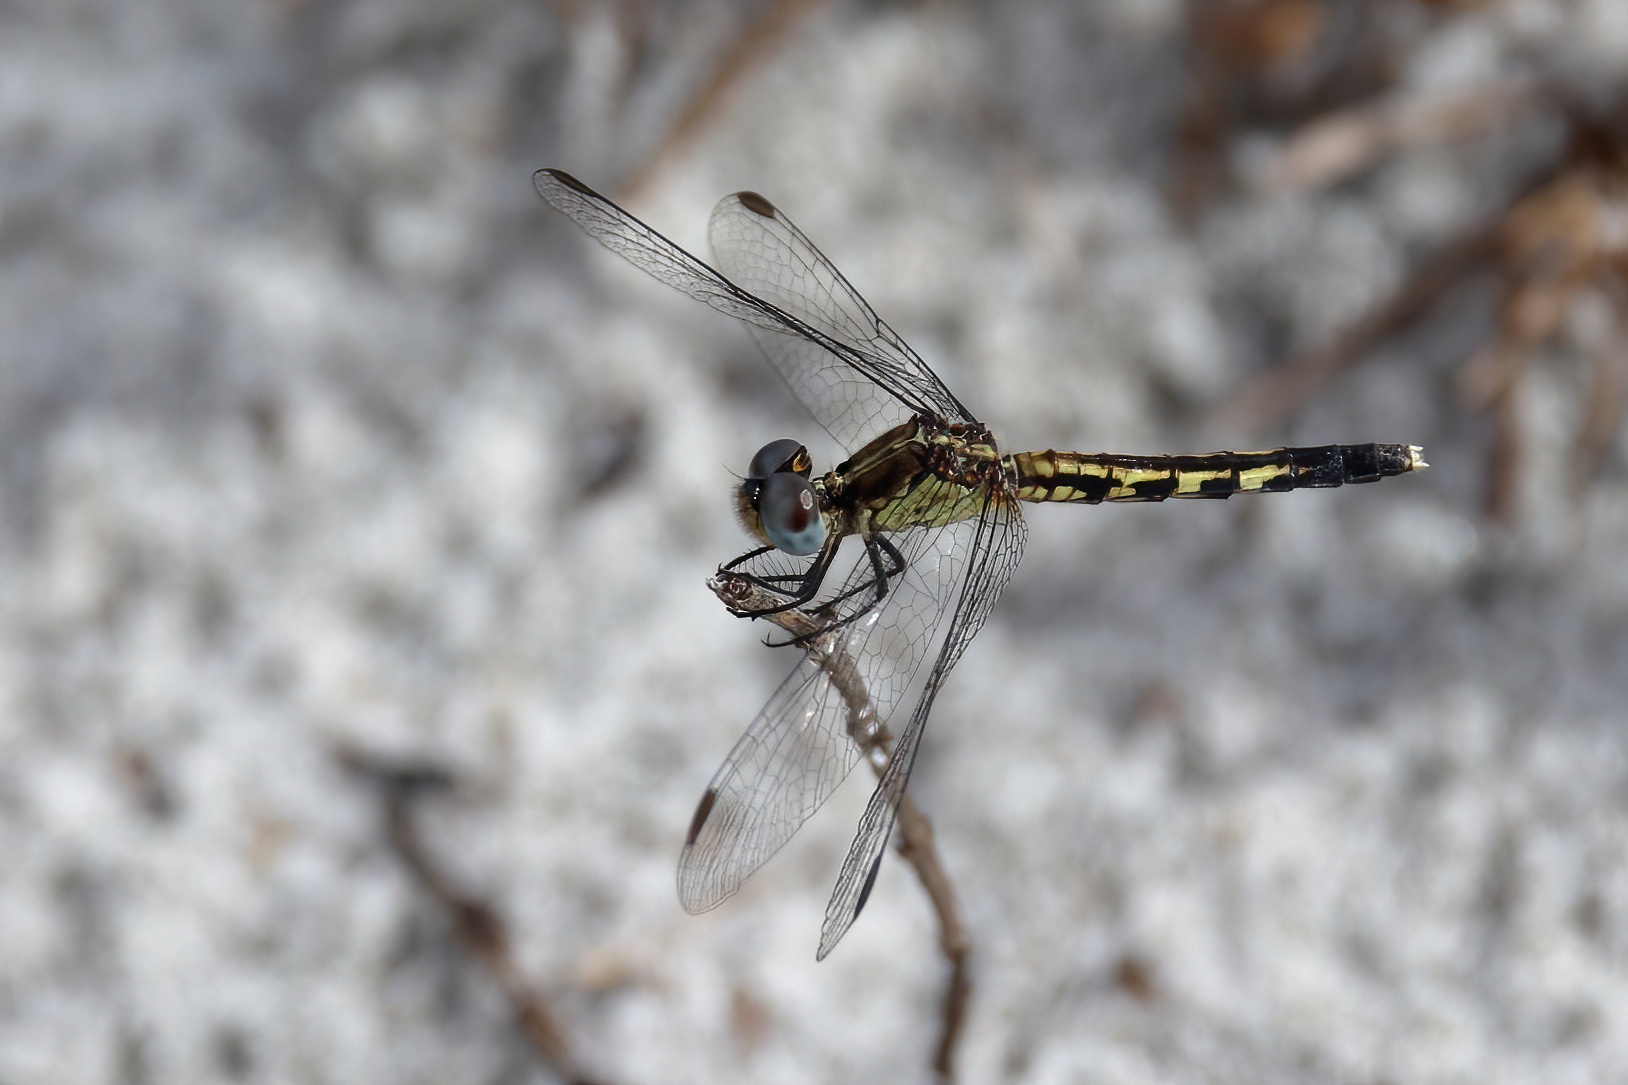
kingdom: Animalia
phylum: Arthropoda
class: Insecta
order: Odonata
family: Libellulidae
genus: Erythrodiplax
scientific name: Erythrodiplax minuscula
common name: Little blue dragonlet
